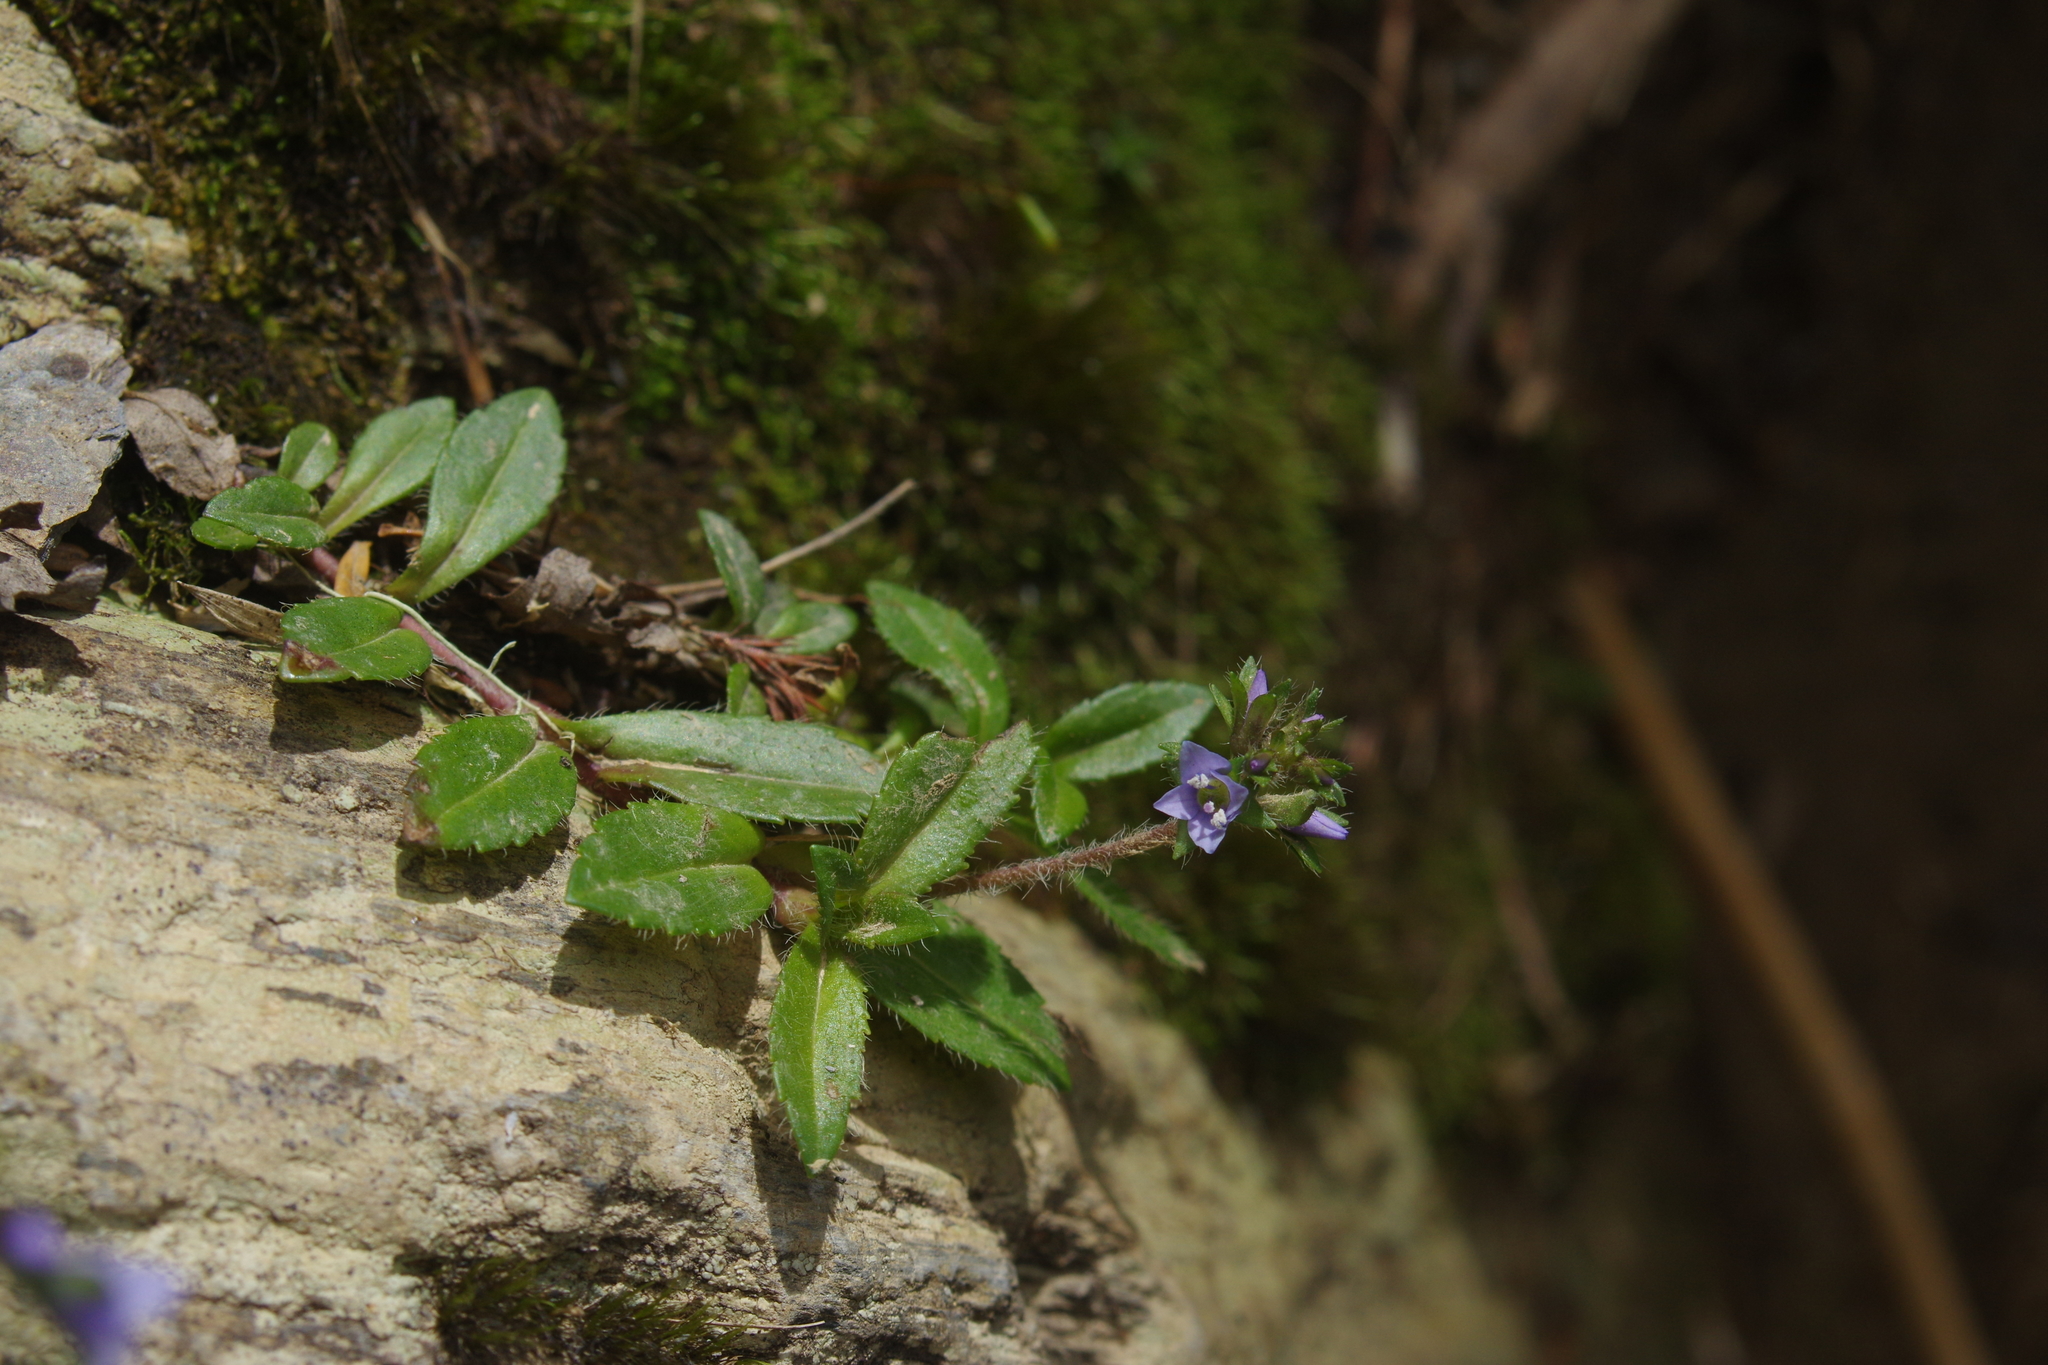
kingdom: Plantae
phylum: Tracheophyta
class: Magnoliopsida
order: Lamiales
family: Plantaginaceae
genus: Veronica
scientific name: Veronica morrisonicola
